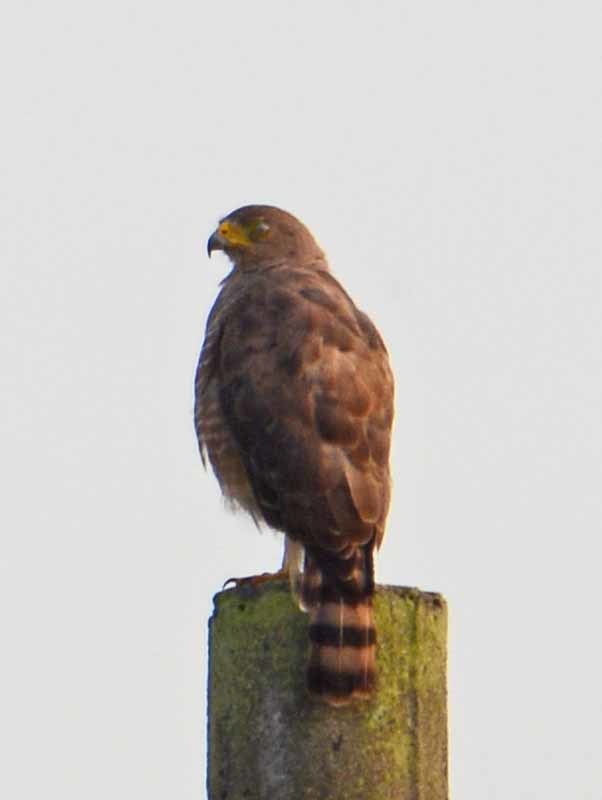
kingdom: Animalia
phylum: Chordata
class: Aves
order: Accipitriformes
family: Accipitridae
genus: Rupornis
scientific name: Rupornis magnirostris
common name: Roadside hawk
